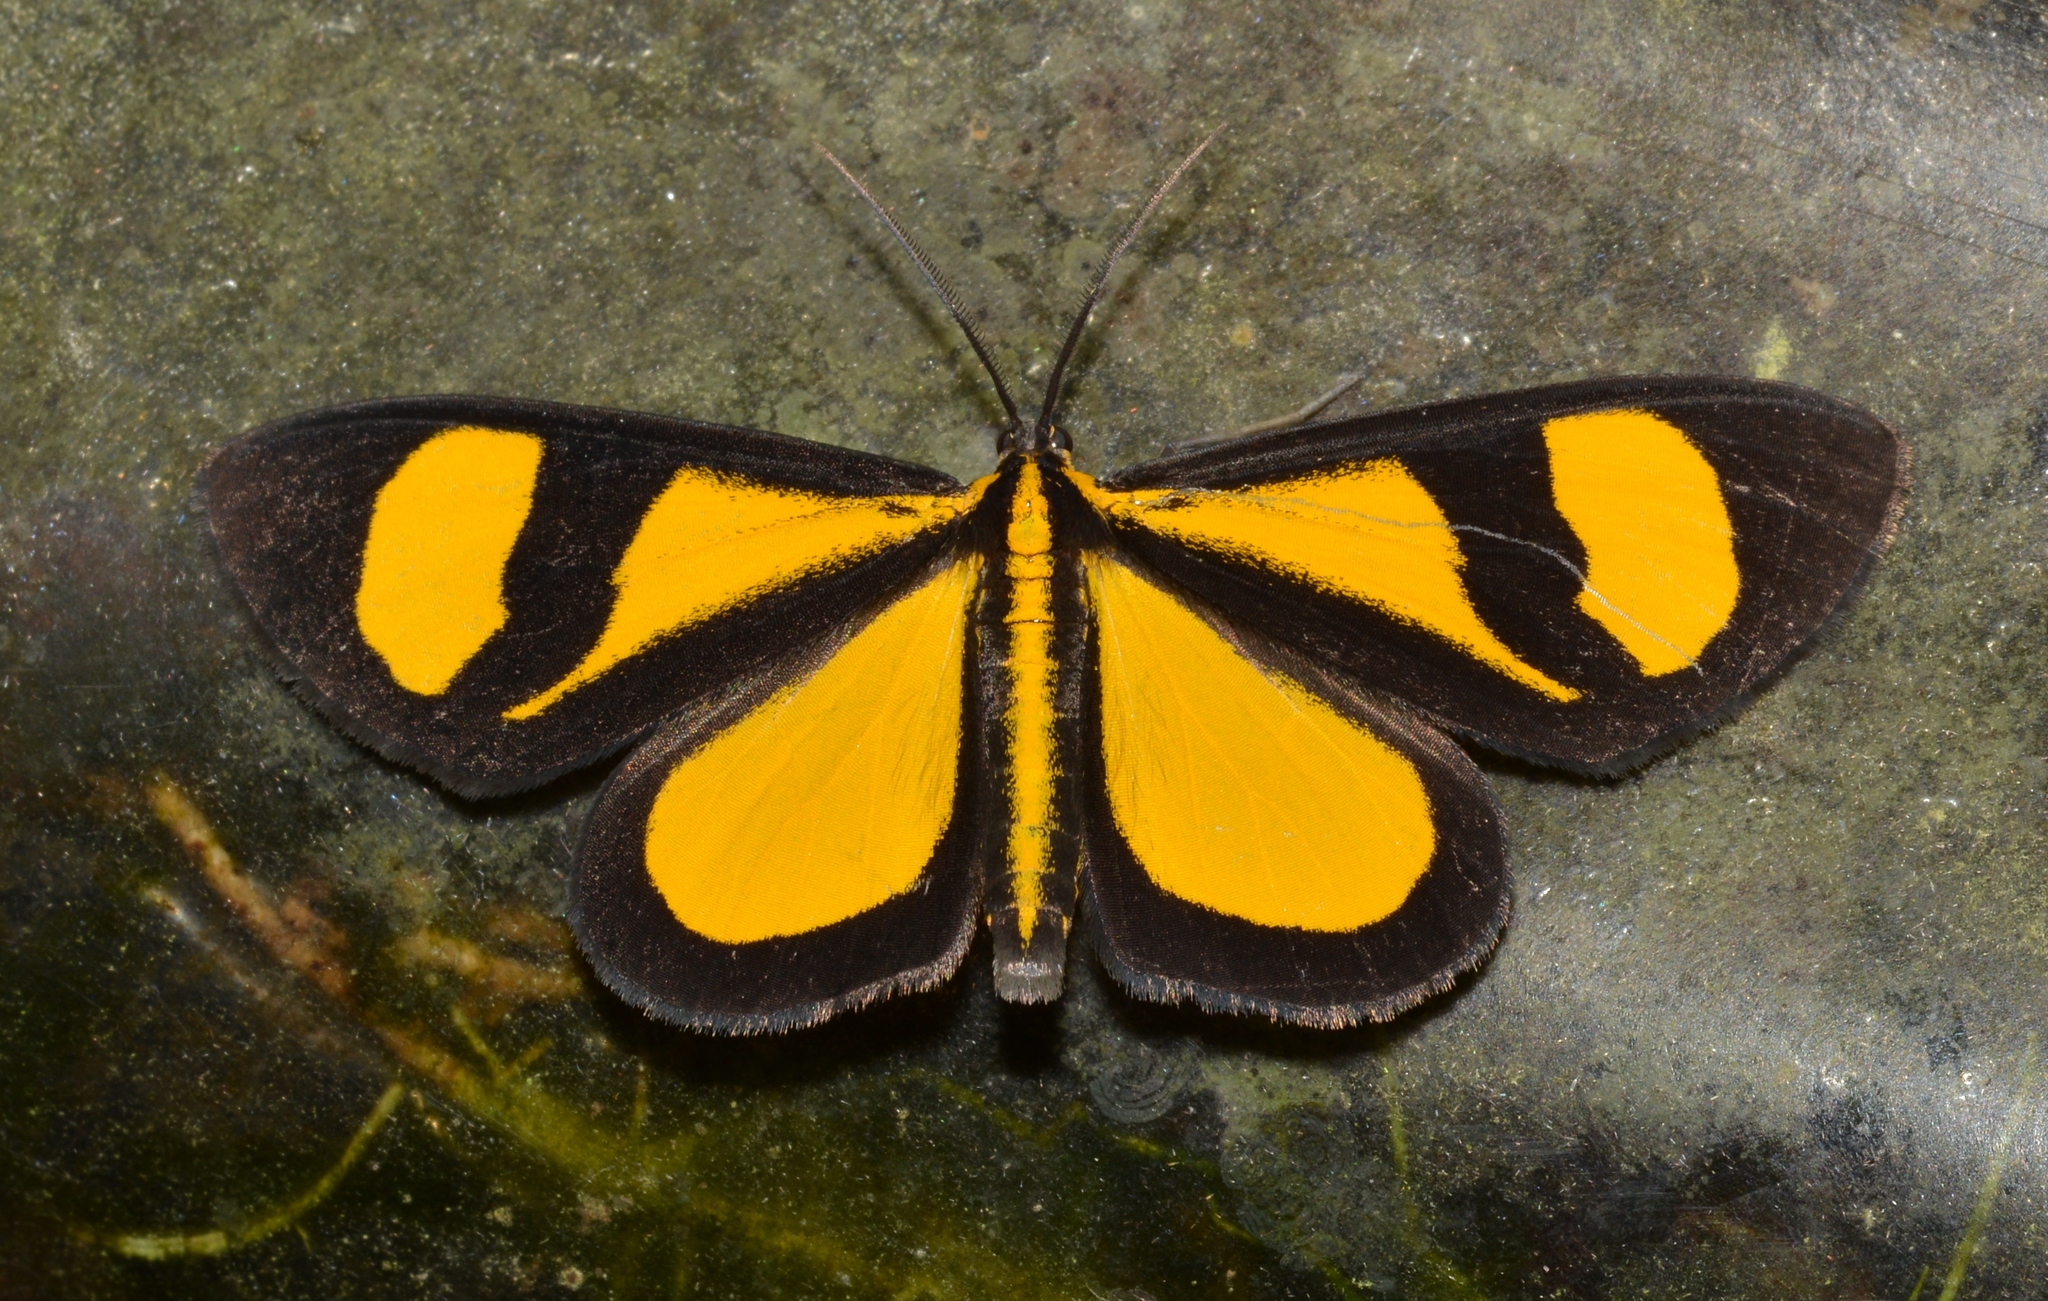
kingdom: Animalia
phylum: Arthropoda
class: Insecta
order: Lepidoptera
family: Geometridae
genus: Smicropus
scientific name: Smicropus laeta
